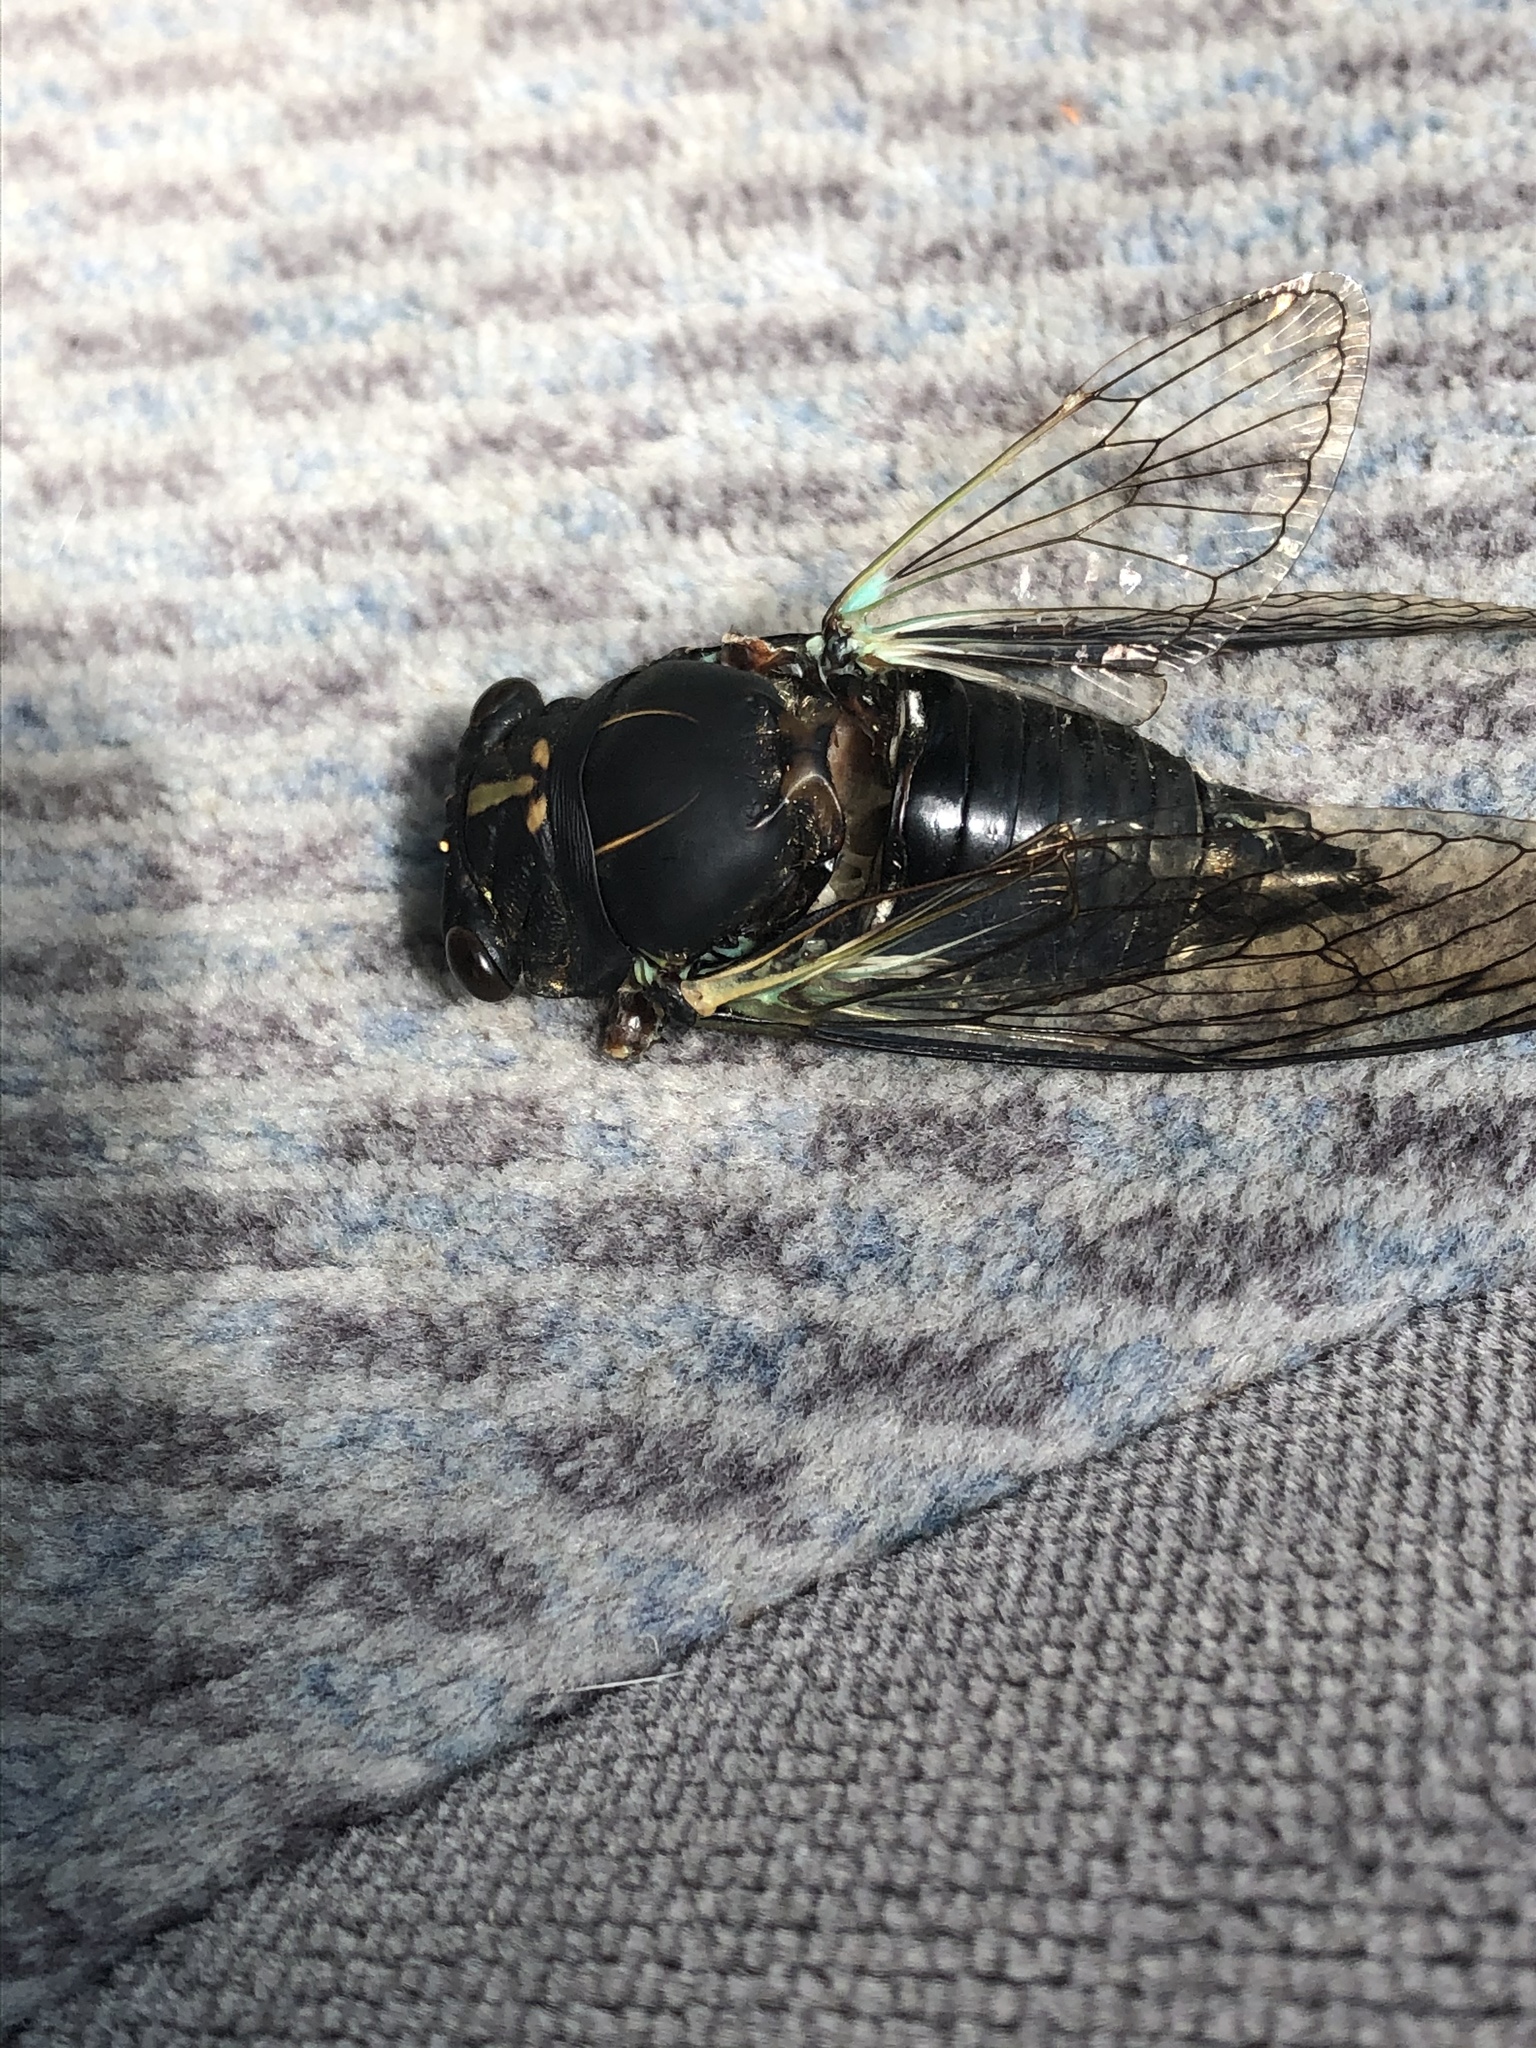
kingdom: Animalia
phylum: Arthropoda
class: Insecta
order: Hemiptera
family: Cicadidae
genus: Neotibicen
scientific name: Neotibicen lyricen
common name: Lyric cicada
